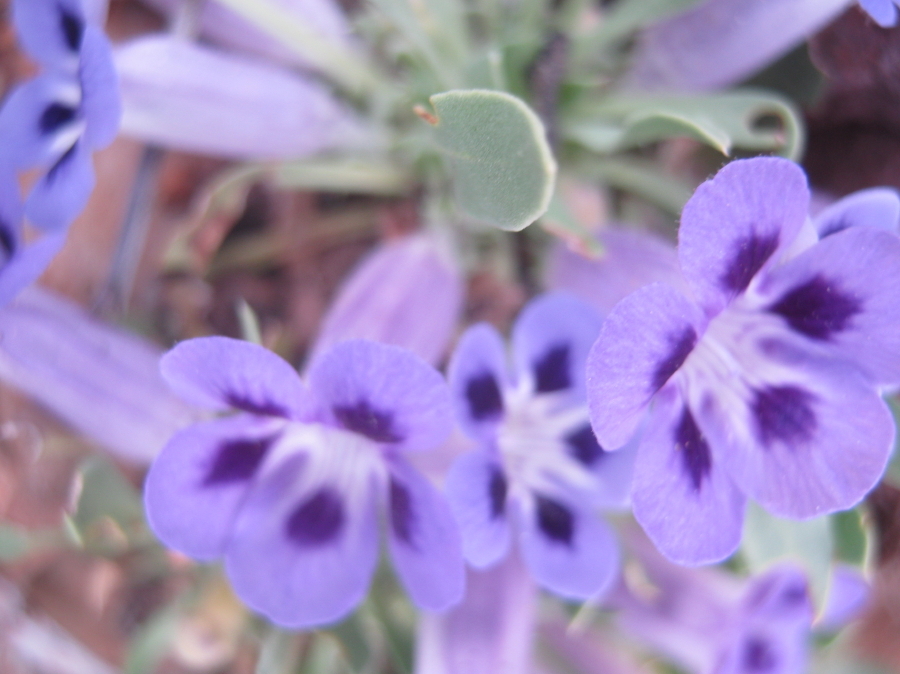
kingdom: Plantae
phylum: Tracheophyta
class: Magnoliopsida
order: Lamiales
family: Scrophulariaceae
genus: Aptosimum
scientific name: Aptosimum indivisum
